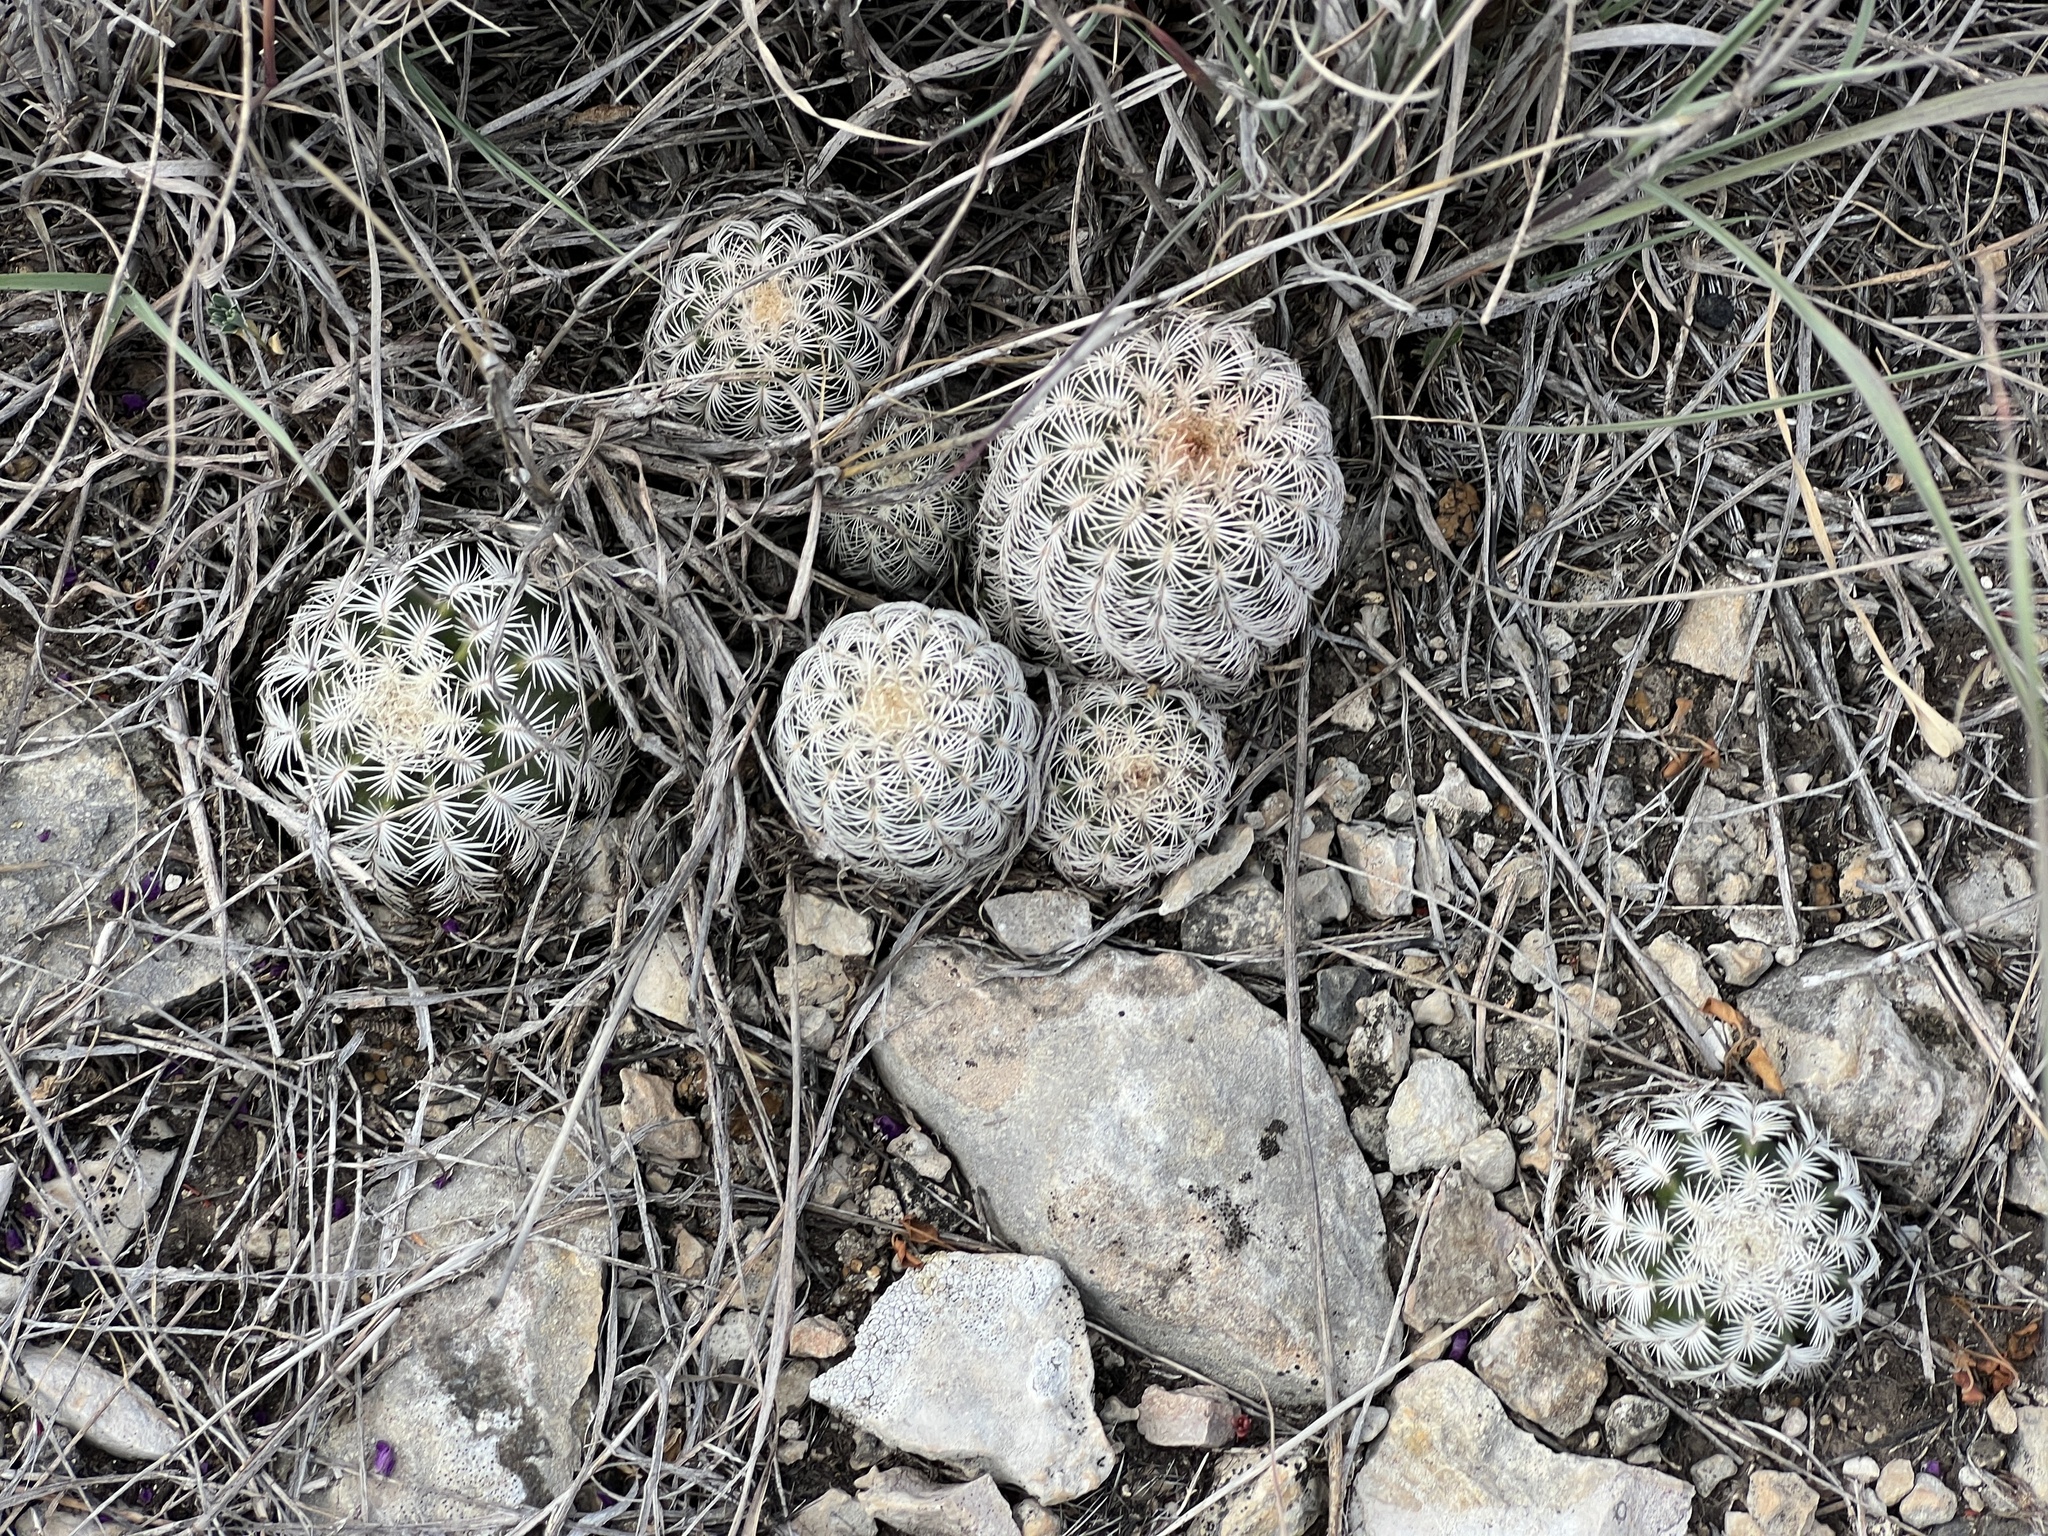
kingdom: Plantae
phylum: Tracheophyta
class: Magnoliopsida
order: Caryophyllales
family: Cactaceae
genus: Echinocereus
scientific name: Echinocereus reichenbachii
